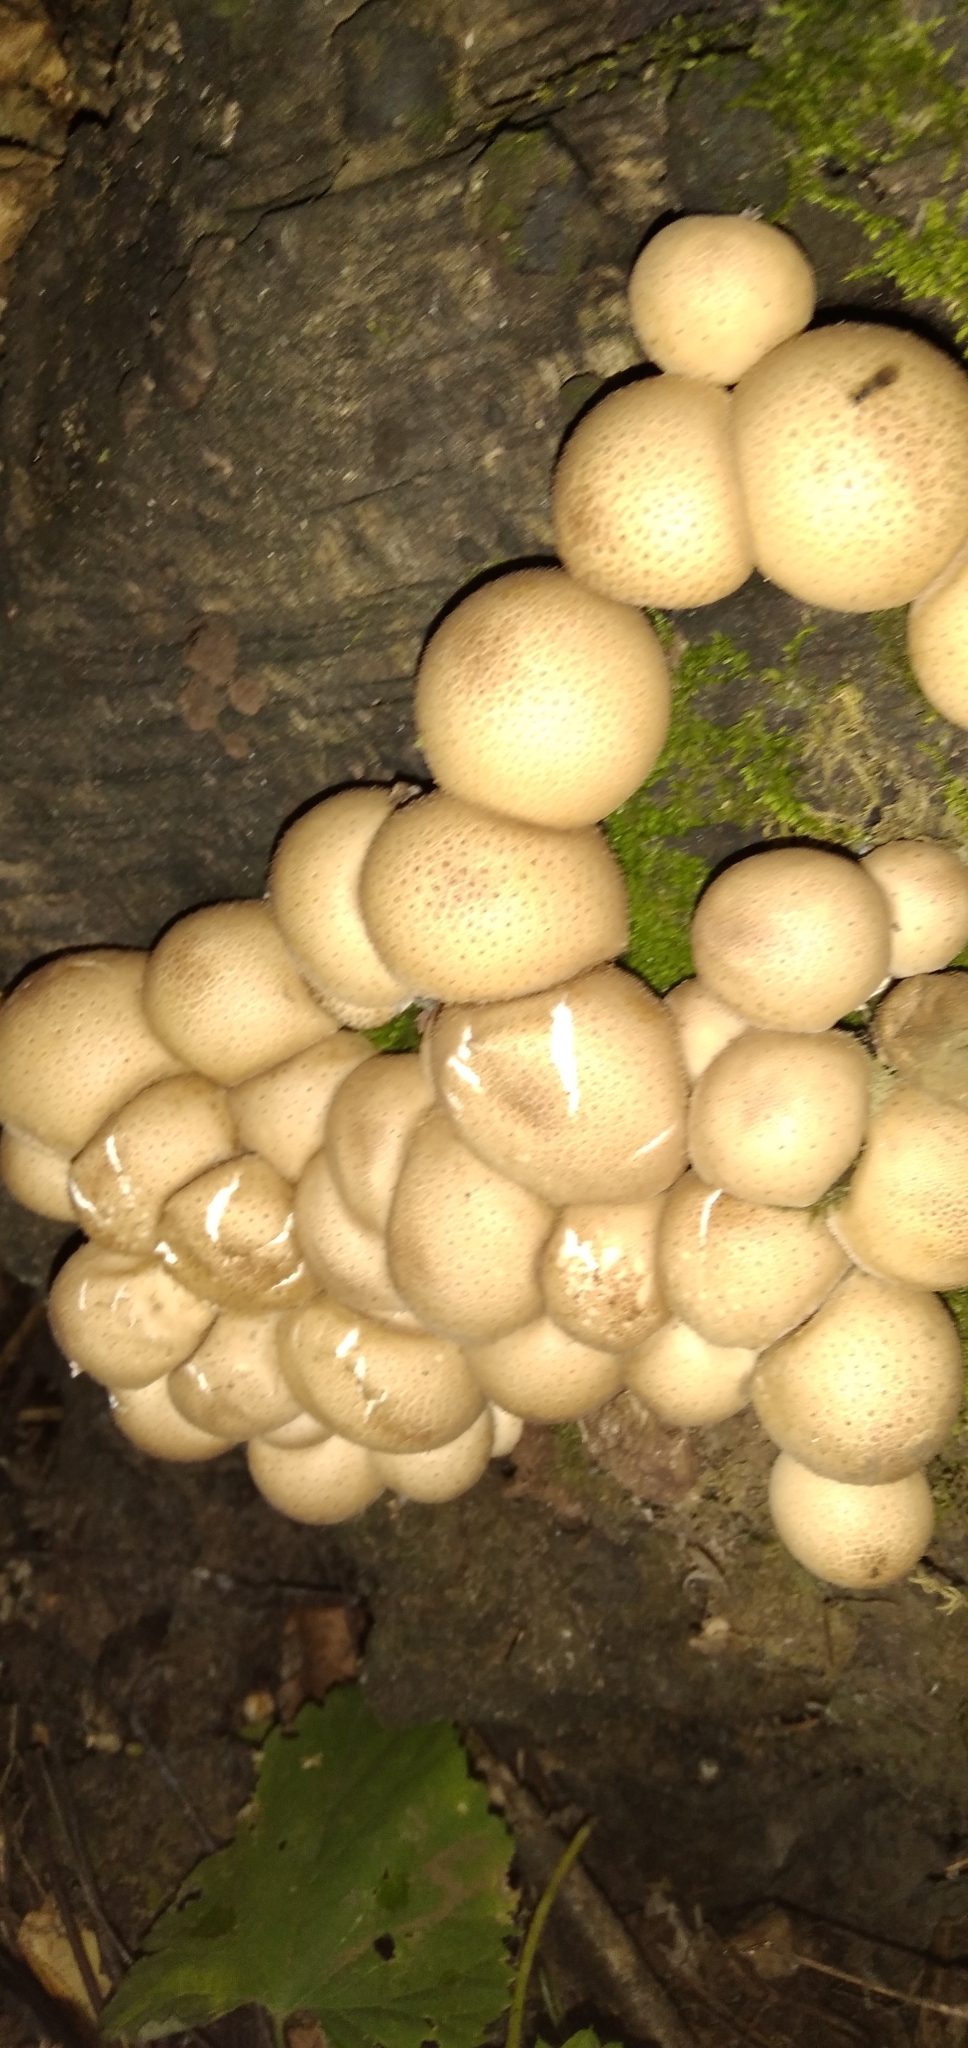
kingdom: Fungi
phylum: Basidiomycota
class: Agaricomycetes
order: Agaricales
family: Lycoperdaceae
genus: Apioperdon
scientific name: Apioperdon pyriforme
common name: Pear-shaped puffball
